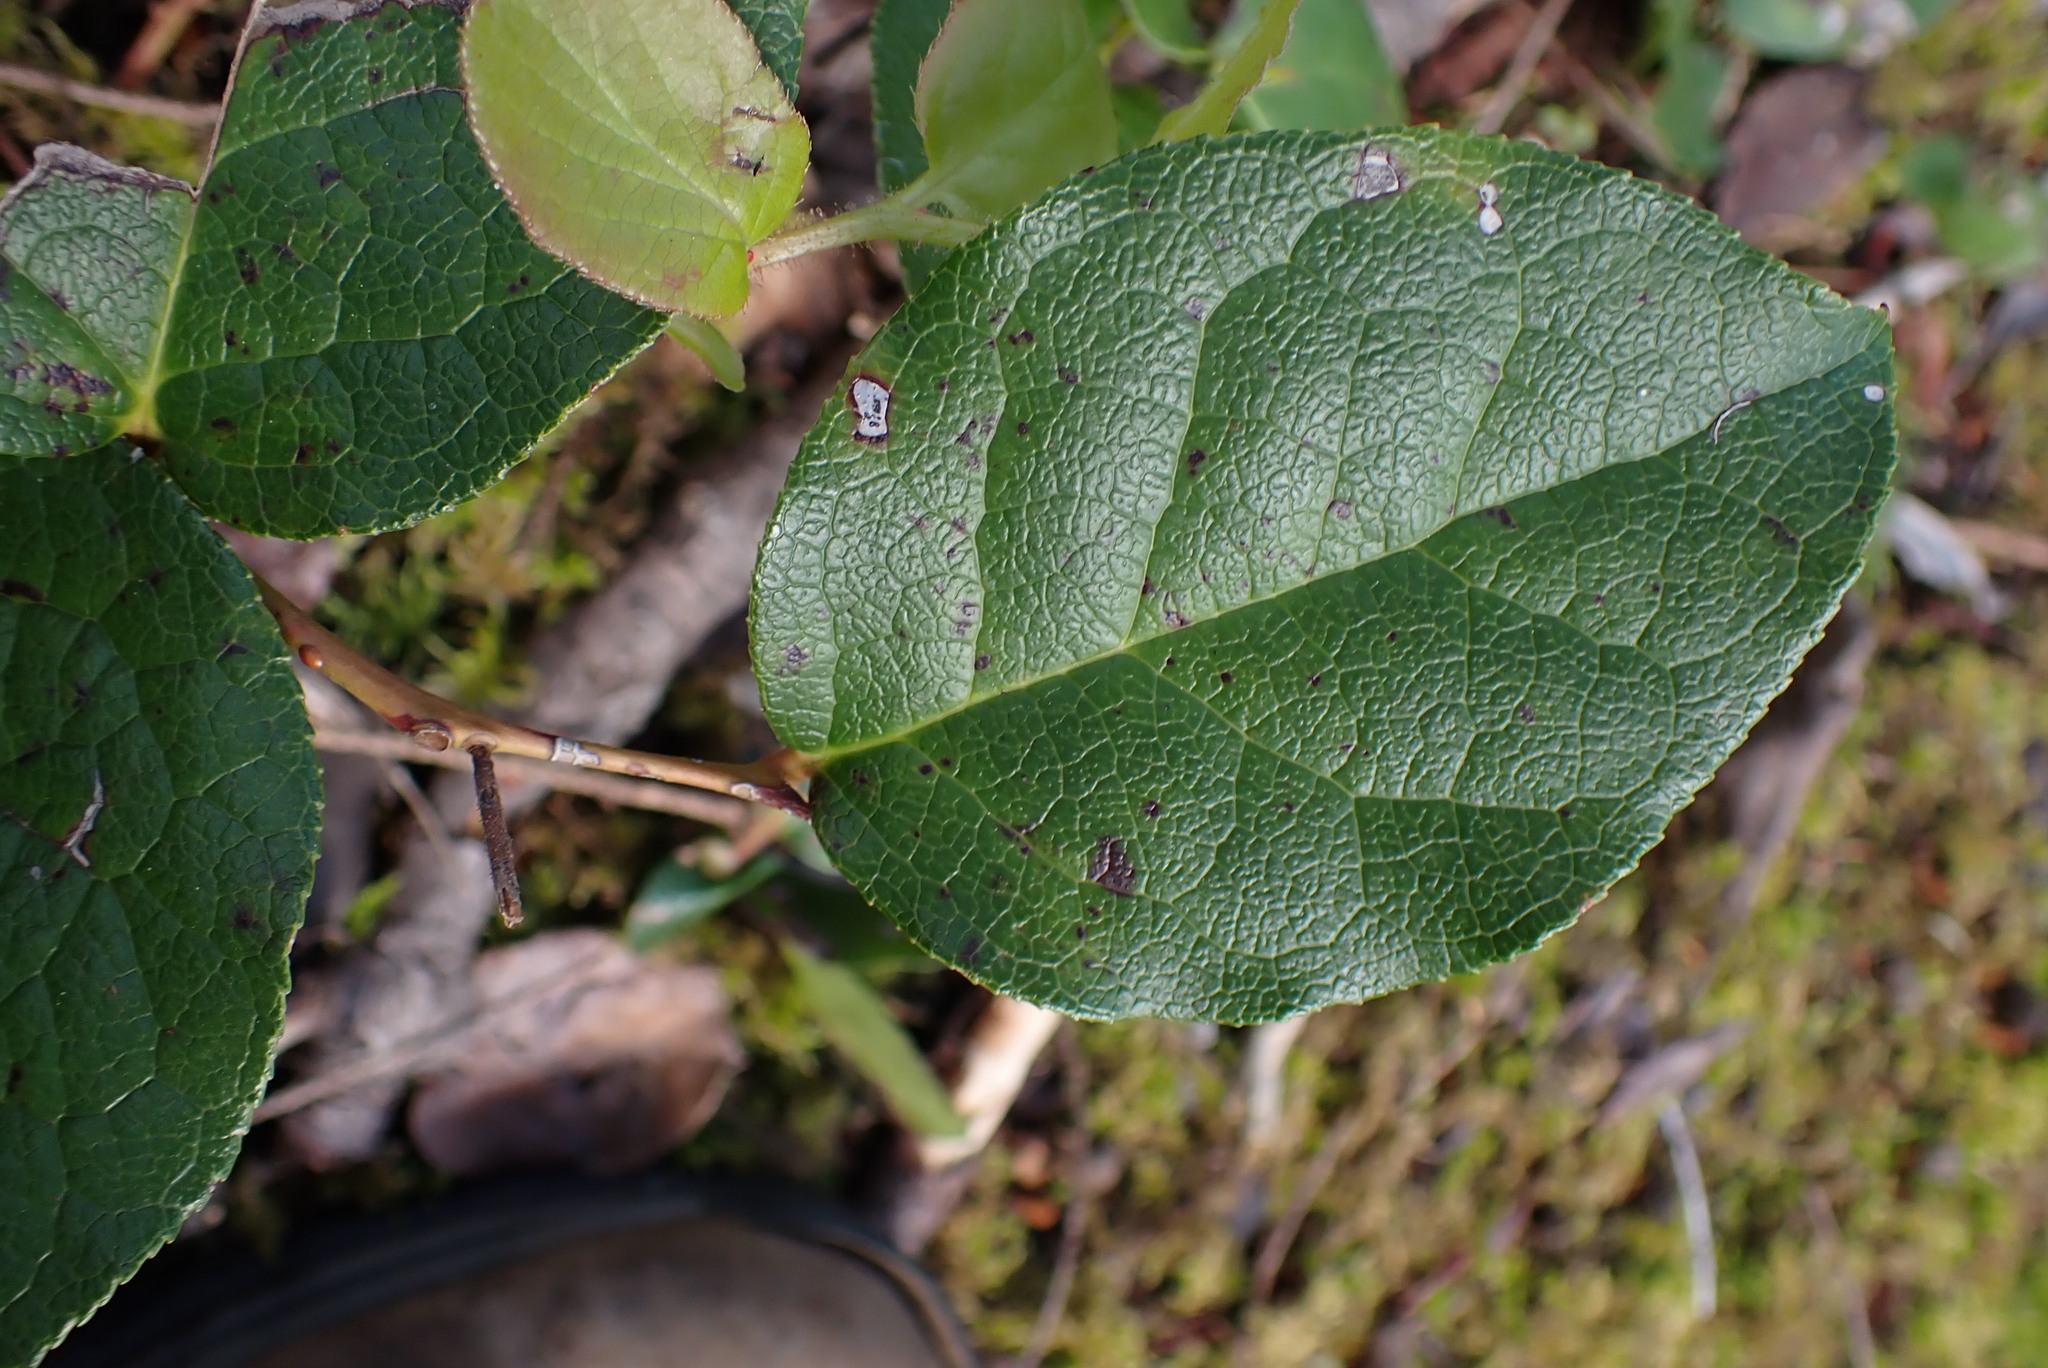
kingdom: Plantae
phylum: Tracheophyta
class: Magnoliopsida
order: Ericales
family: Ericaceae
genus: Gaultheria
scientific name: Gaultheria shallon
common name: Shallon
